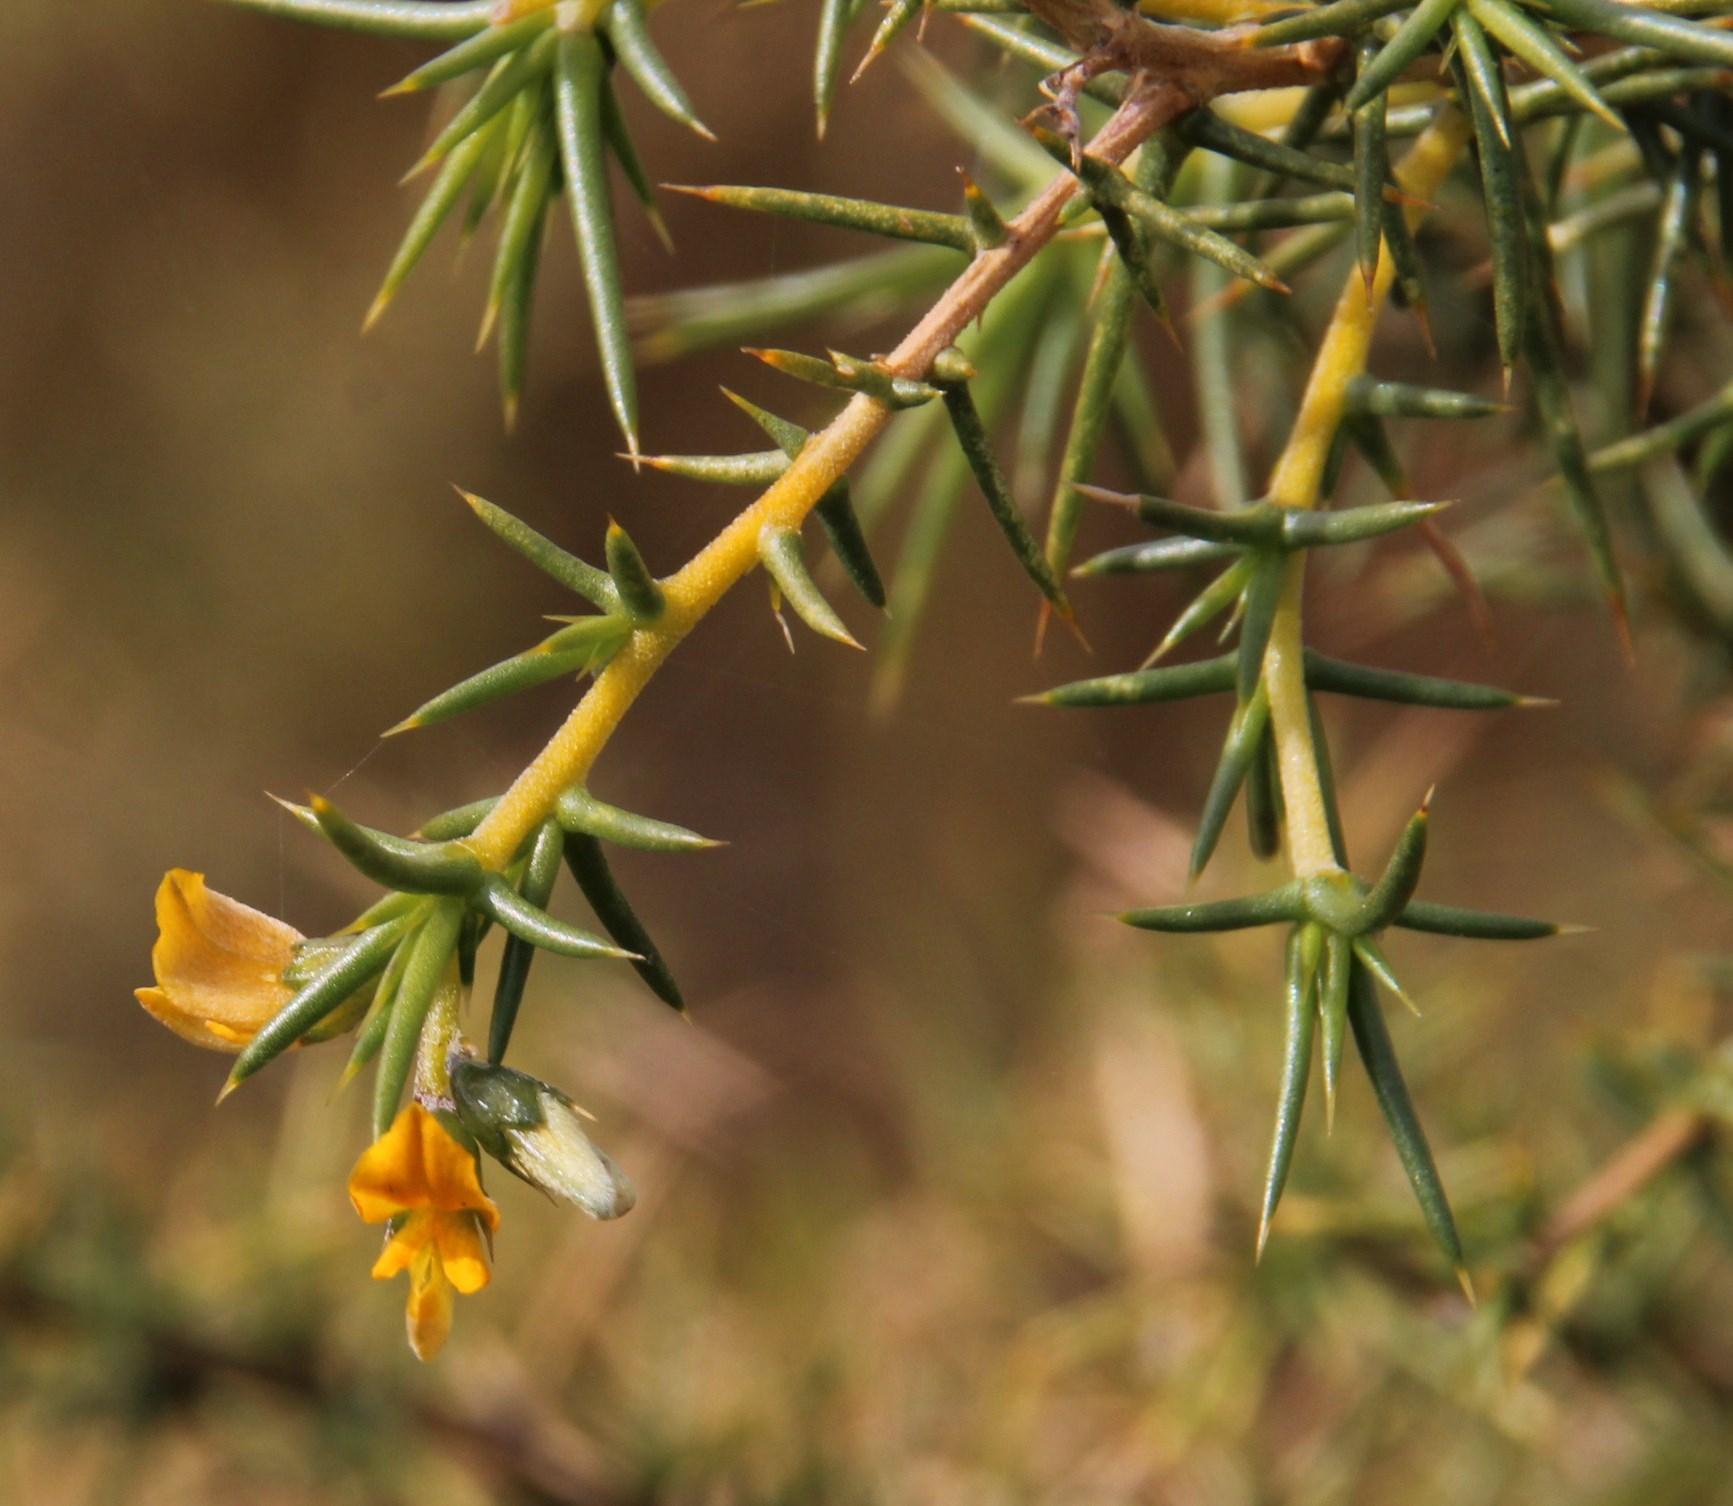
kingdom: Plantae
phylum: Tracheophyta
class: Magnoliopsida
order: Fabales
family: Fabaceae
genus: Aspalathus
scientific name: Aspalathus vulnerans
